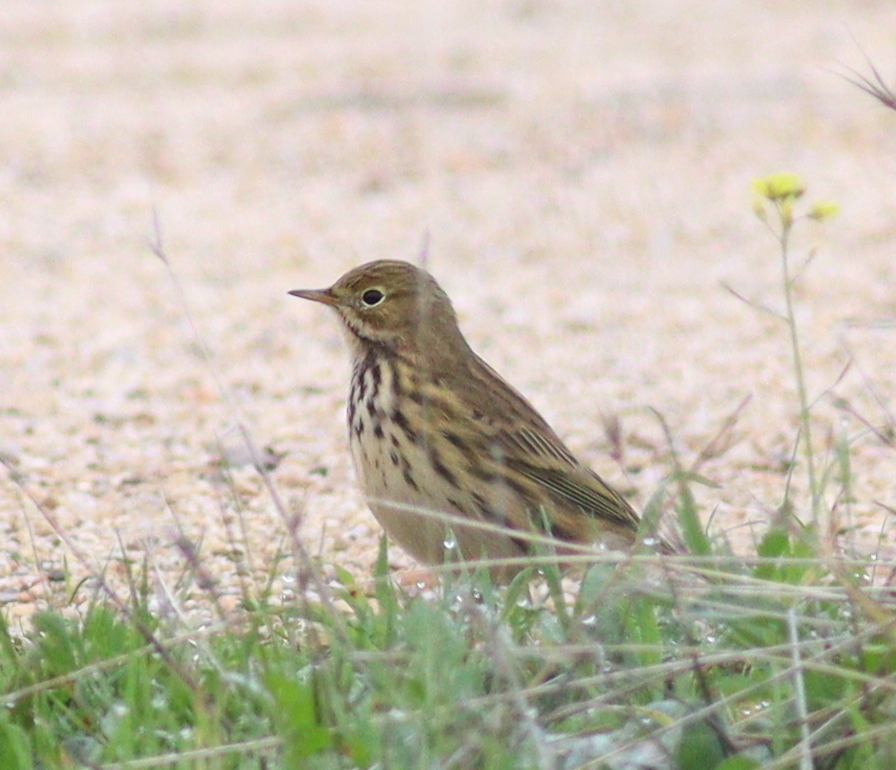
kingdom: Animalia
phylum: Chordata
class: Aves
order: Passeriformes
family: Motacillidae
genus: Anthus
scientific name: Anthus pratensis
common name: Meadow pipit
